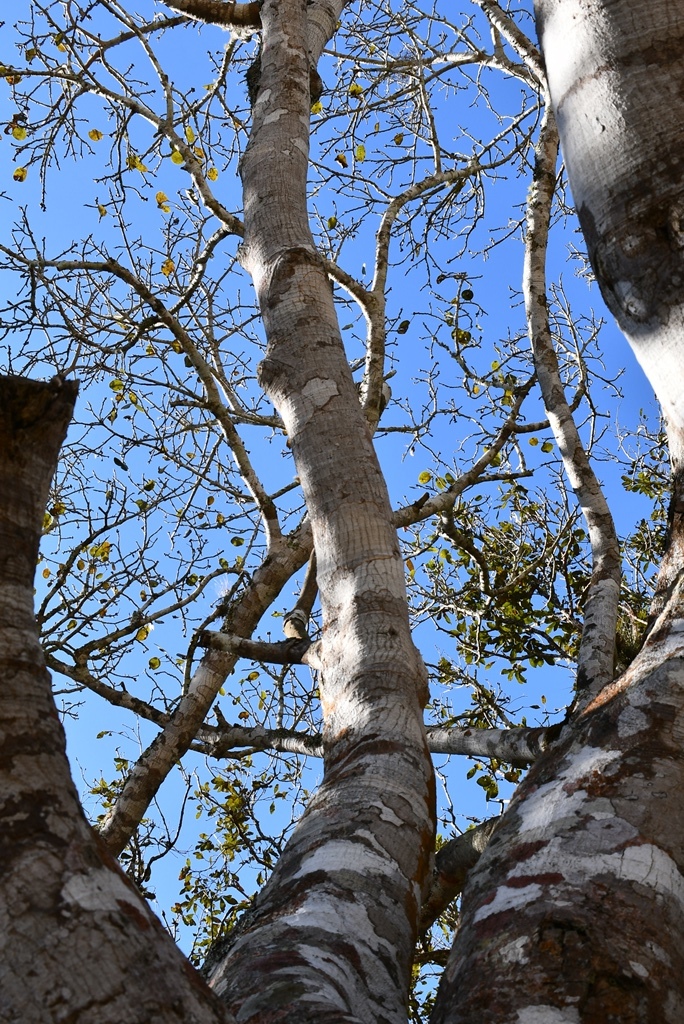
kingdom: Plantae
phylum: Tracheophyta
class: Magnoliopsida
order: Rosales
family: Moraceae
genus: Ficus
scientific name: Ficus aurea
